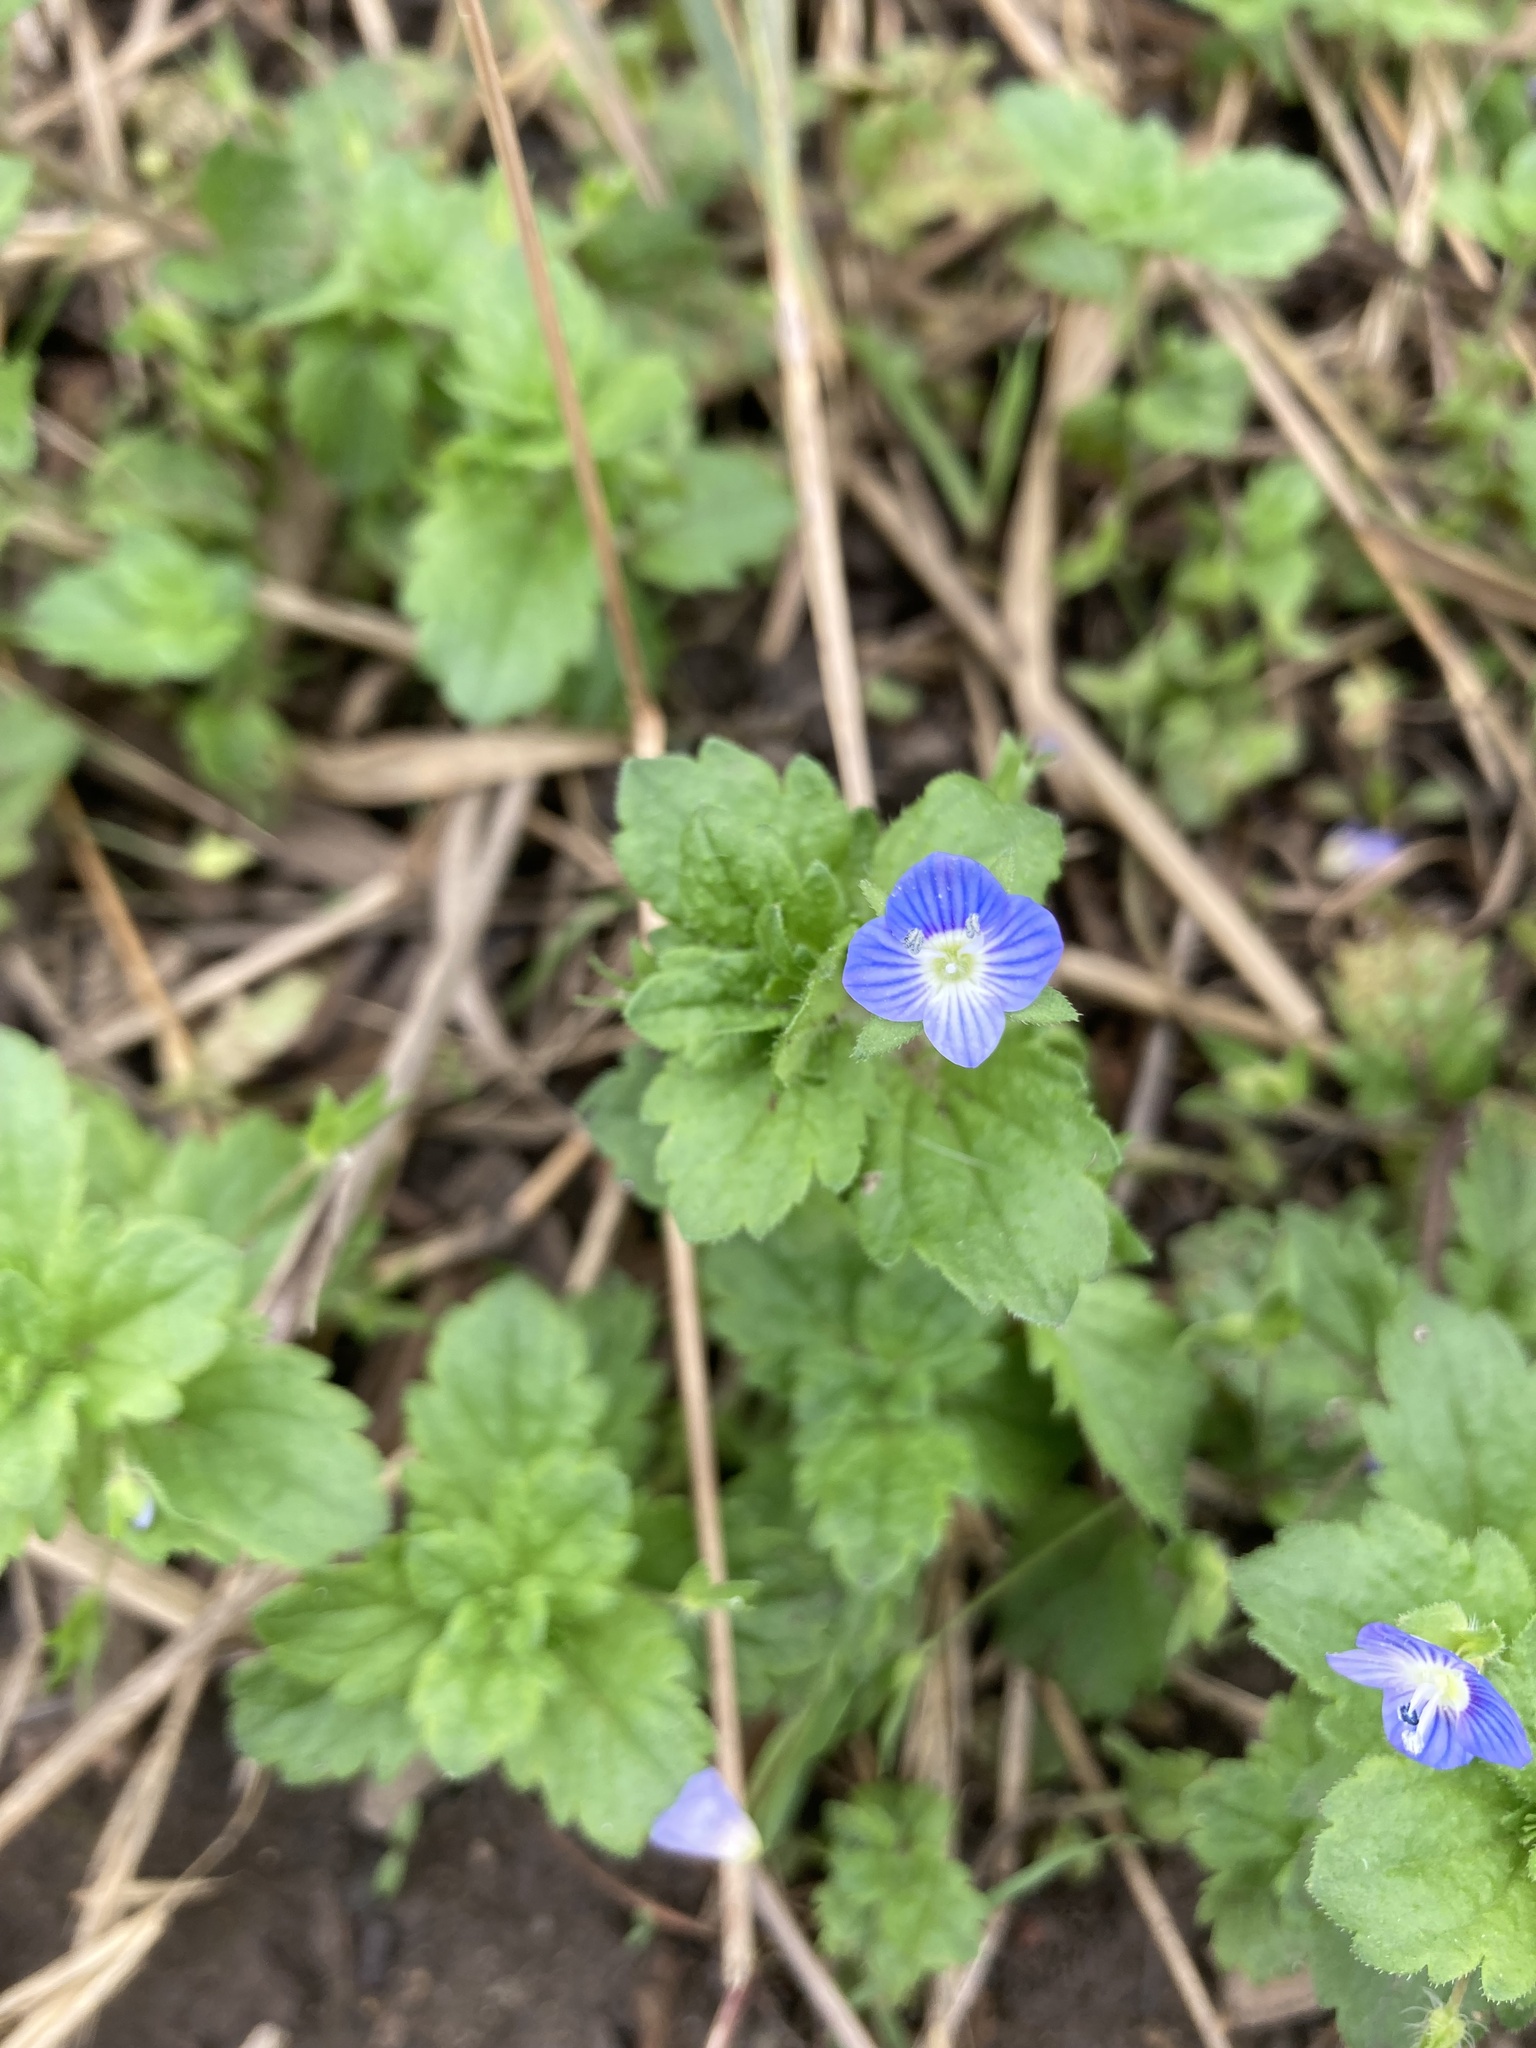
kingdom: Plantae
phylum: Tracheophyta
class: Magnoliopsida
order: Lamiales
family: Plantaginaceae
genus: Veronica
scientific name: Veronica persica
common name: Common field-speedwell
